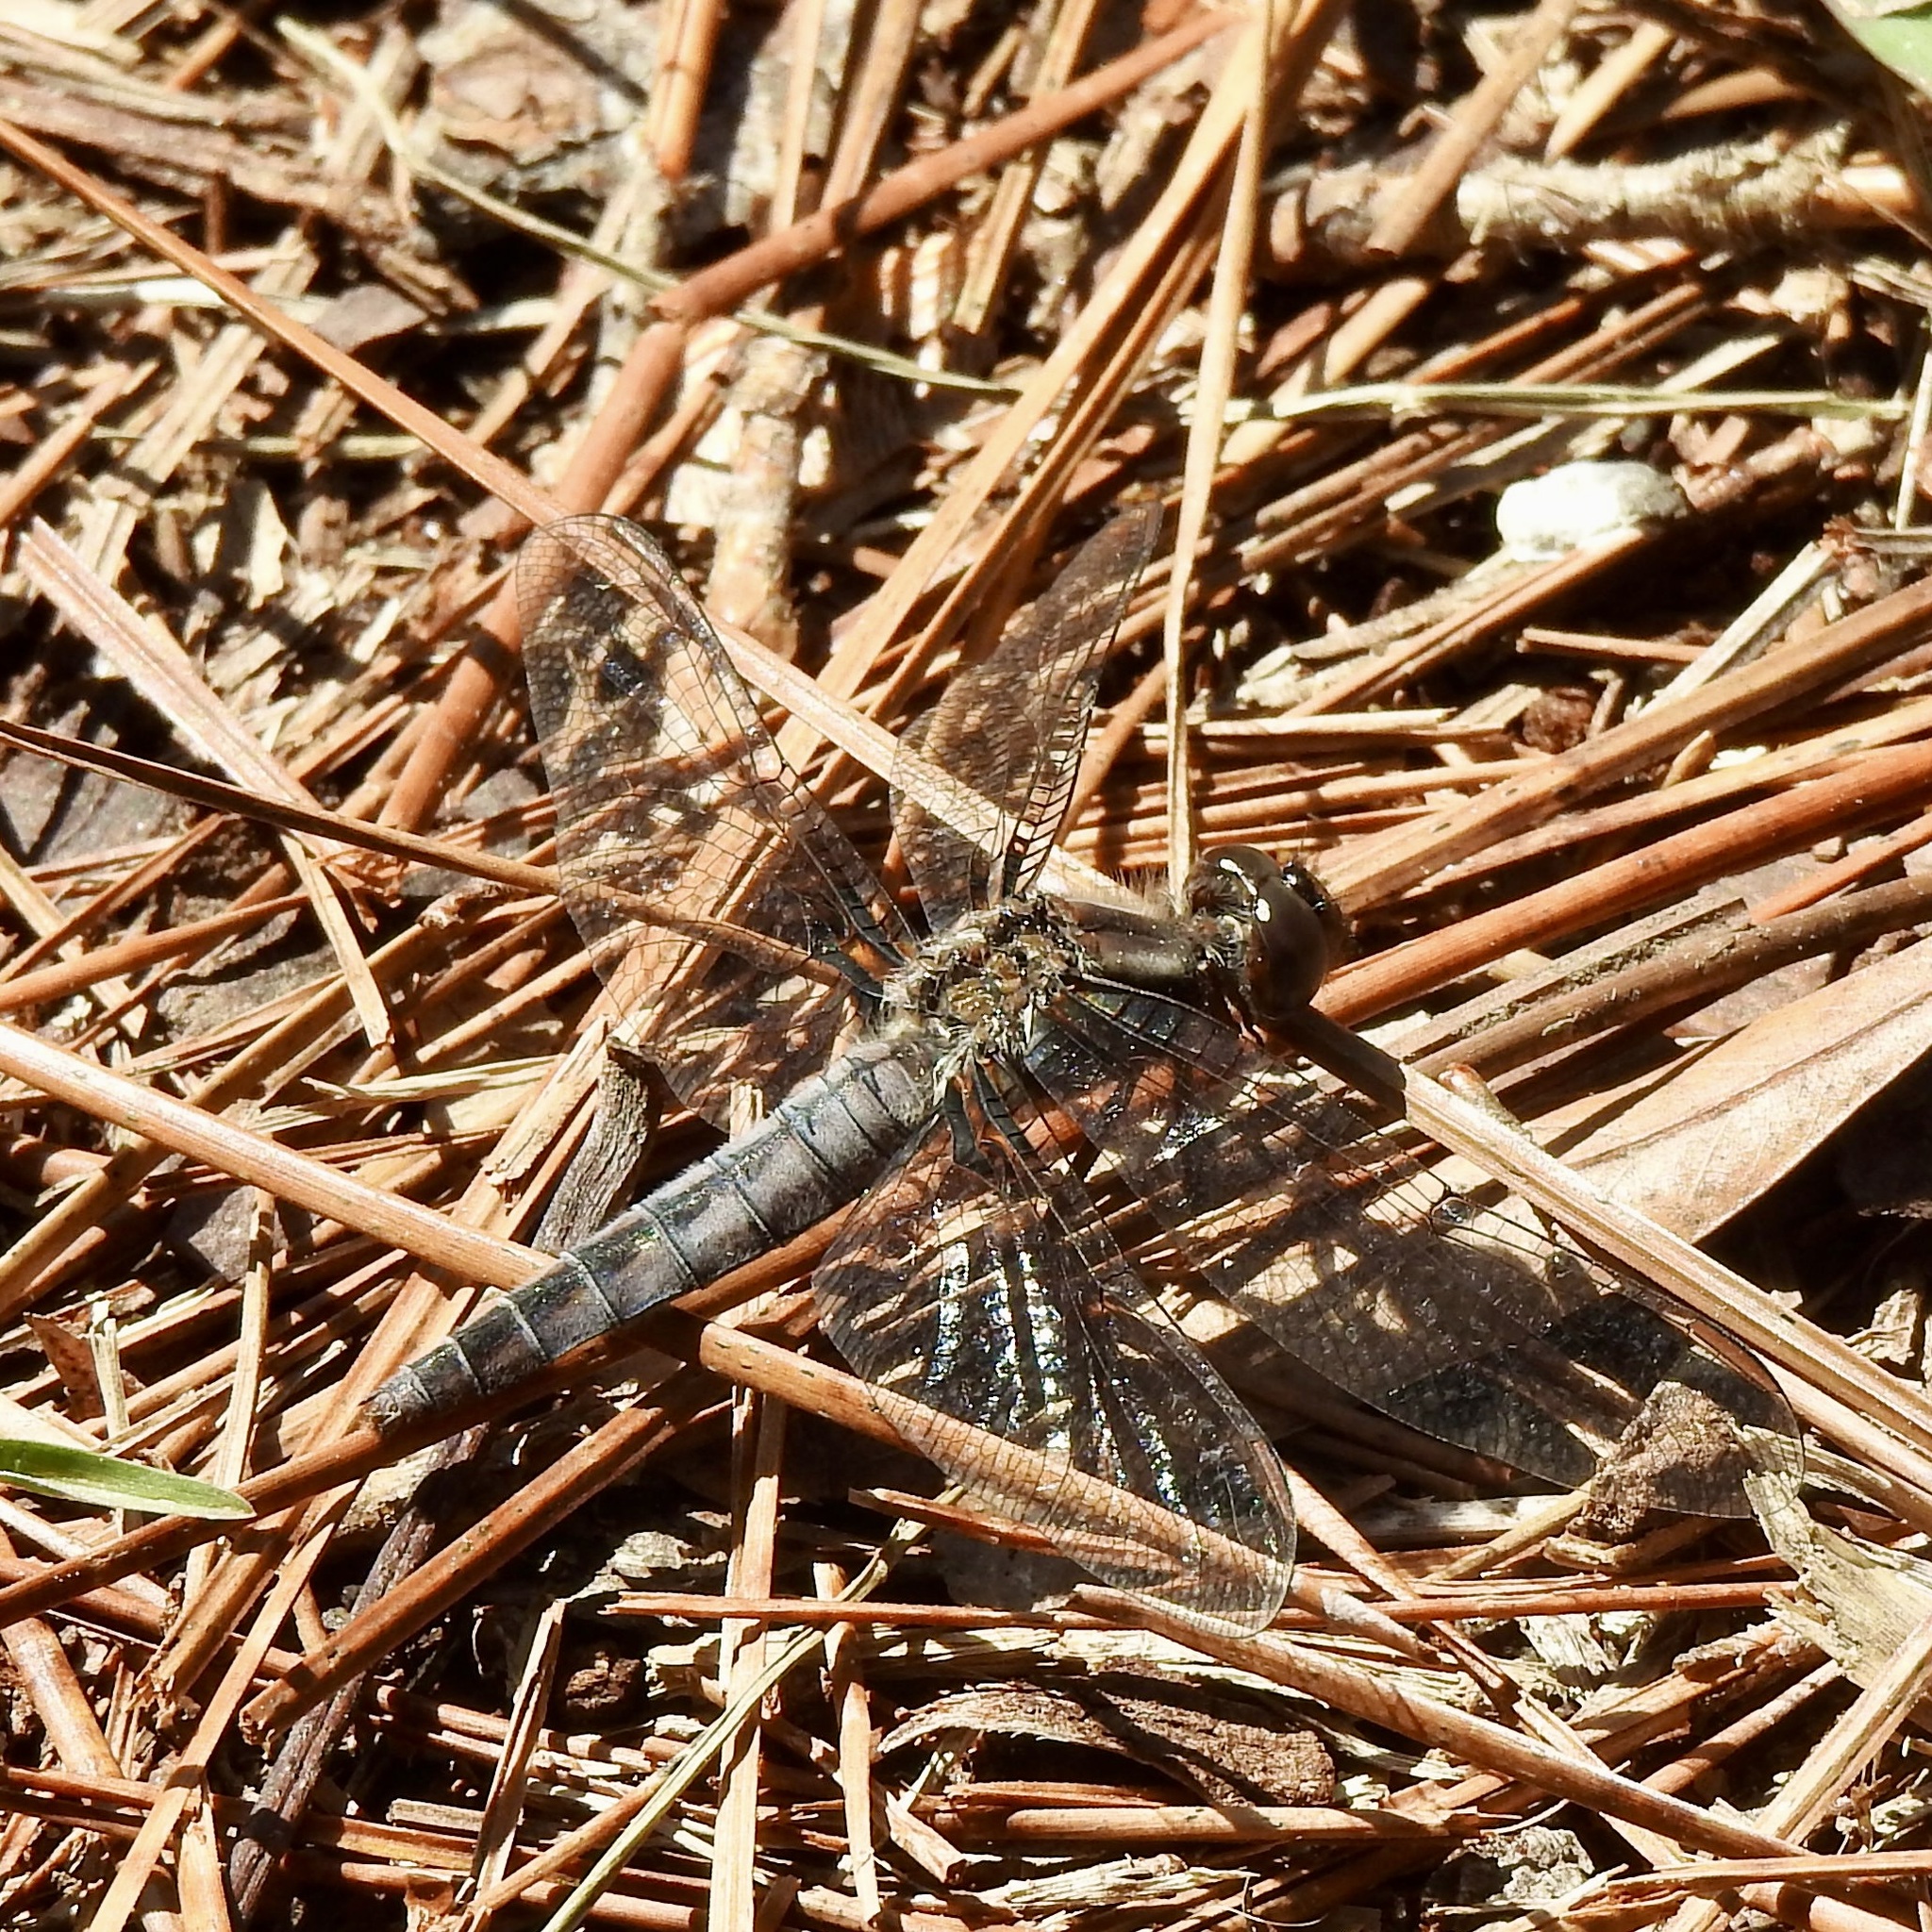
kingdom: Animalia
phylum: Arthropoda
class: Insecta
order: Odonata
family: Libellulidae
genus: Ladona
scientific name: Ladona deplanata
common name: Blue corporal
